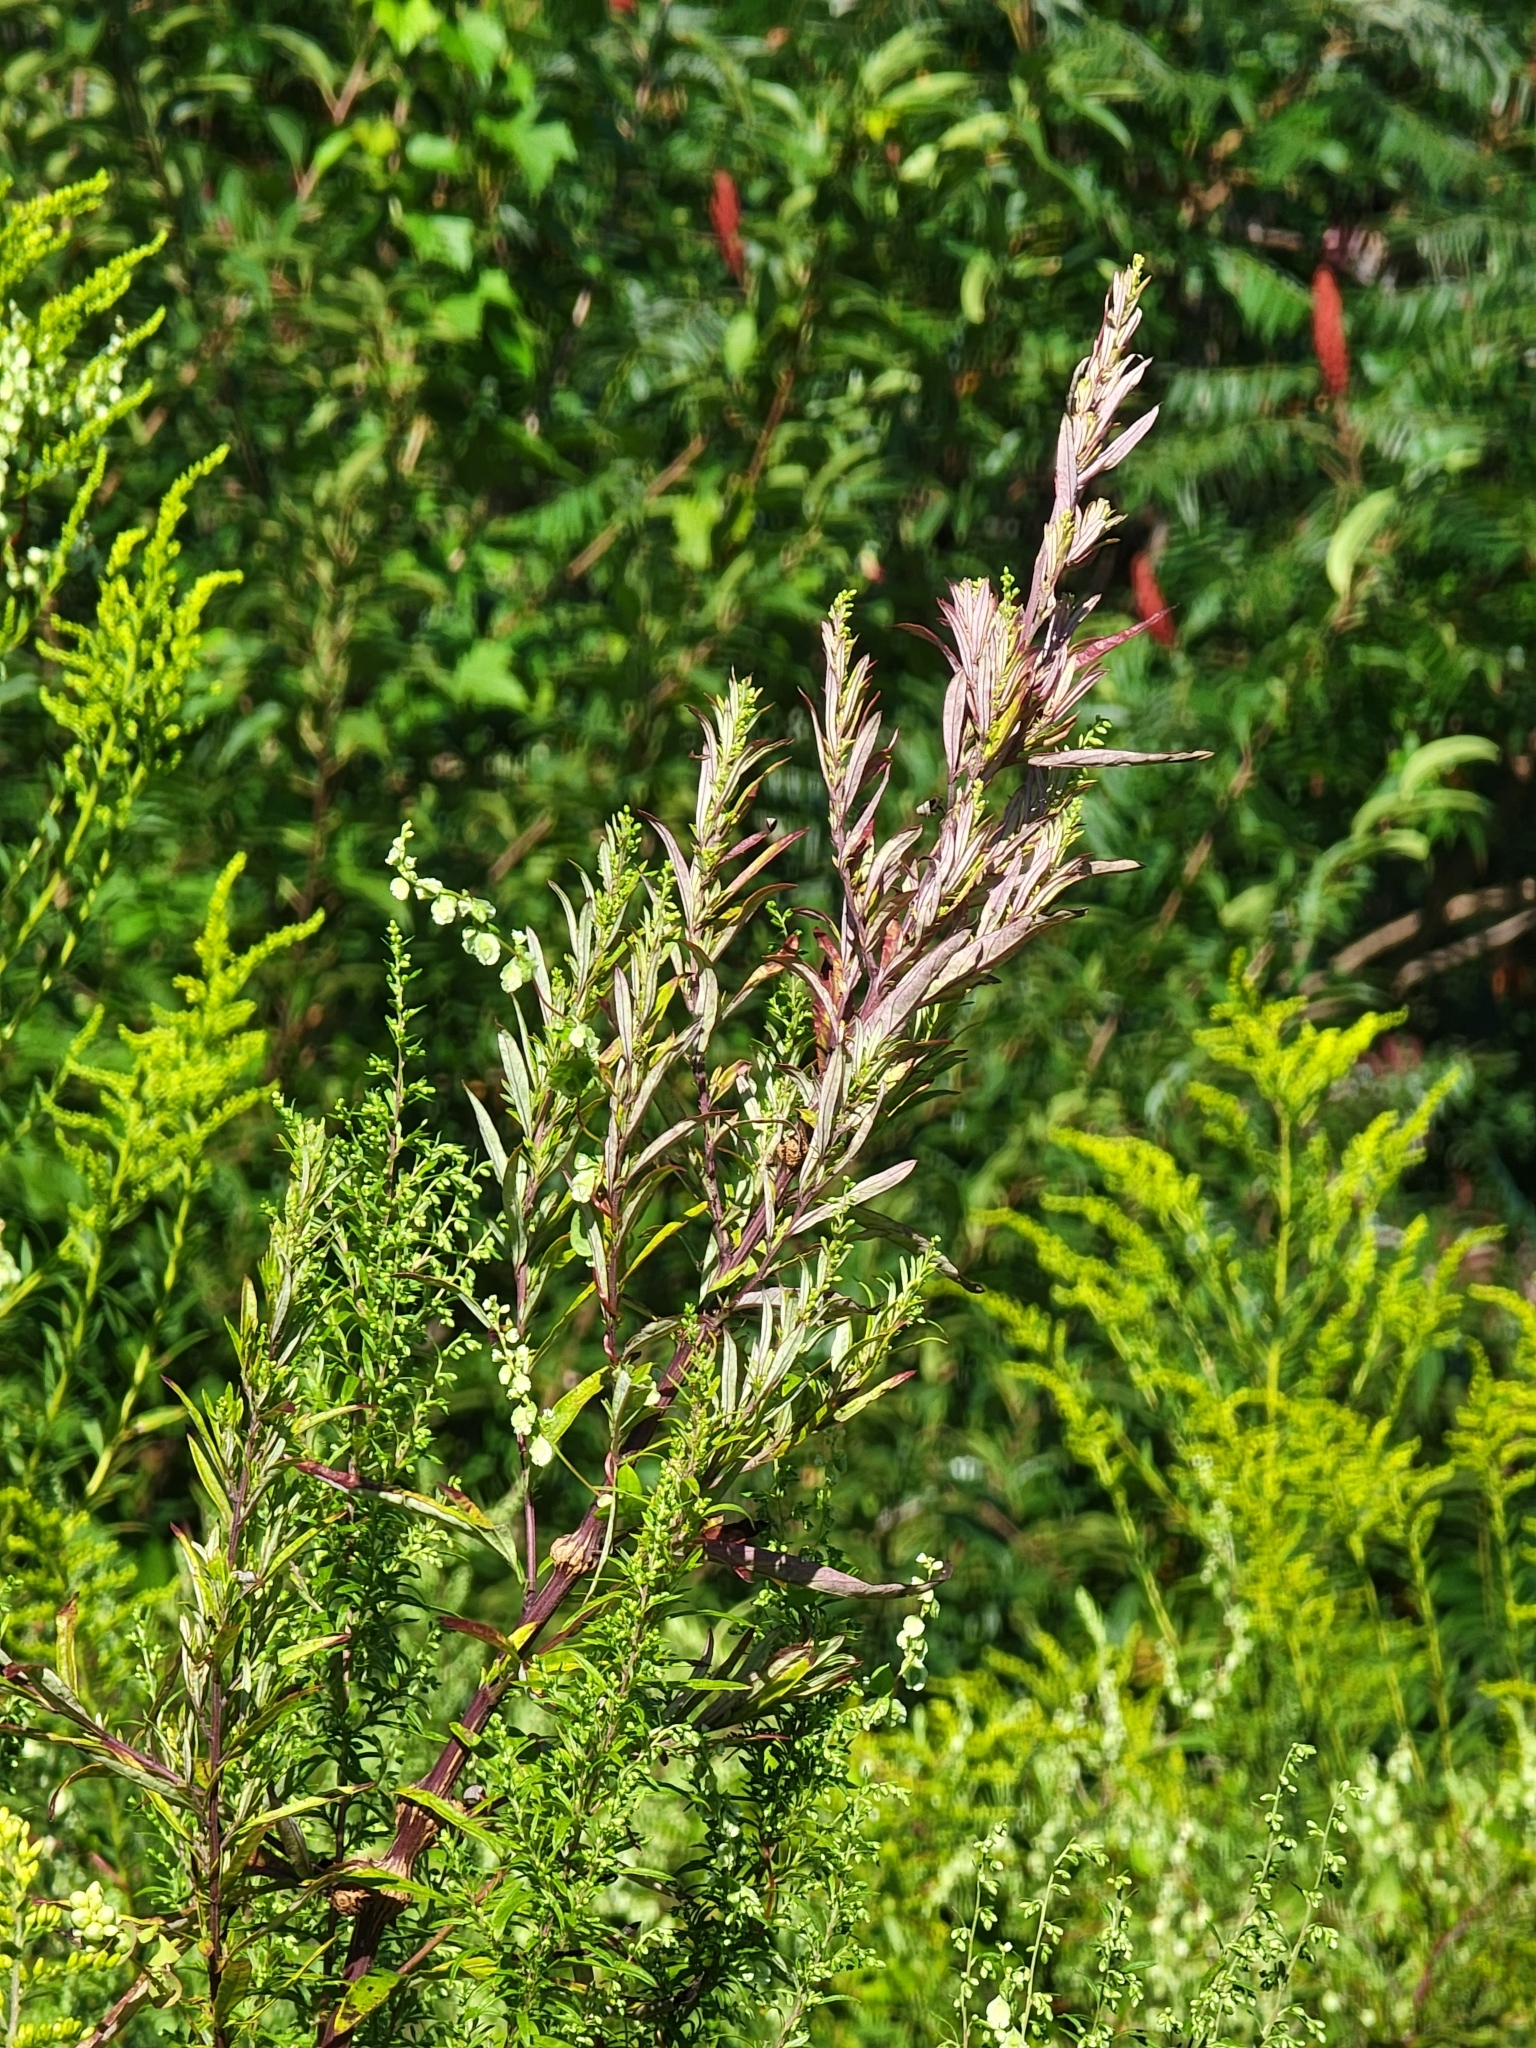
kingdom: Plantae
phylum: Tracheophyta
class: Magnoliopsida
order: Asterales
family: Asteraceae
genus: Artemisia
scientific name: Artemisia vulgaris
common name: Mugwort
